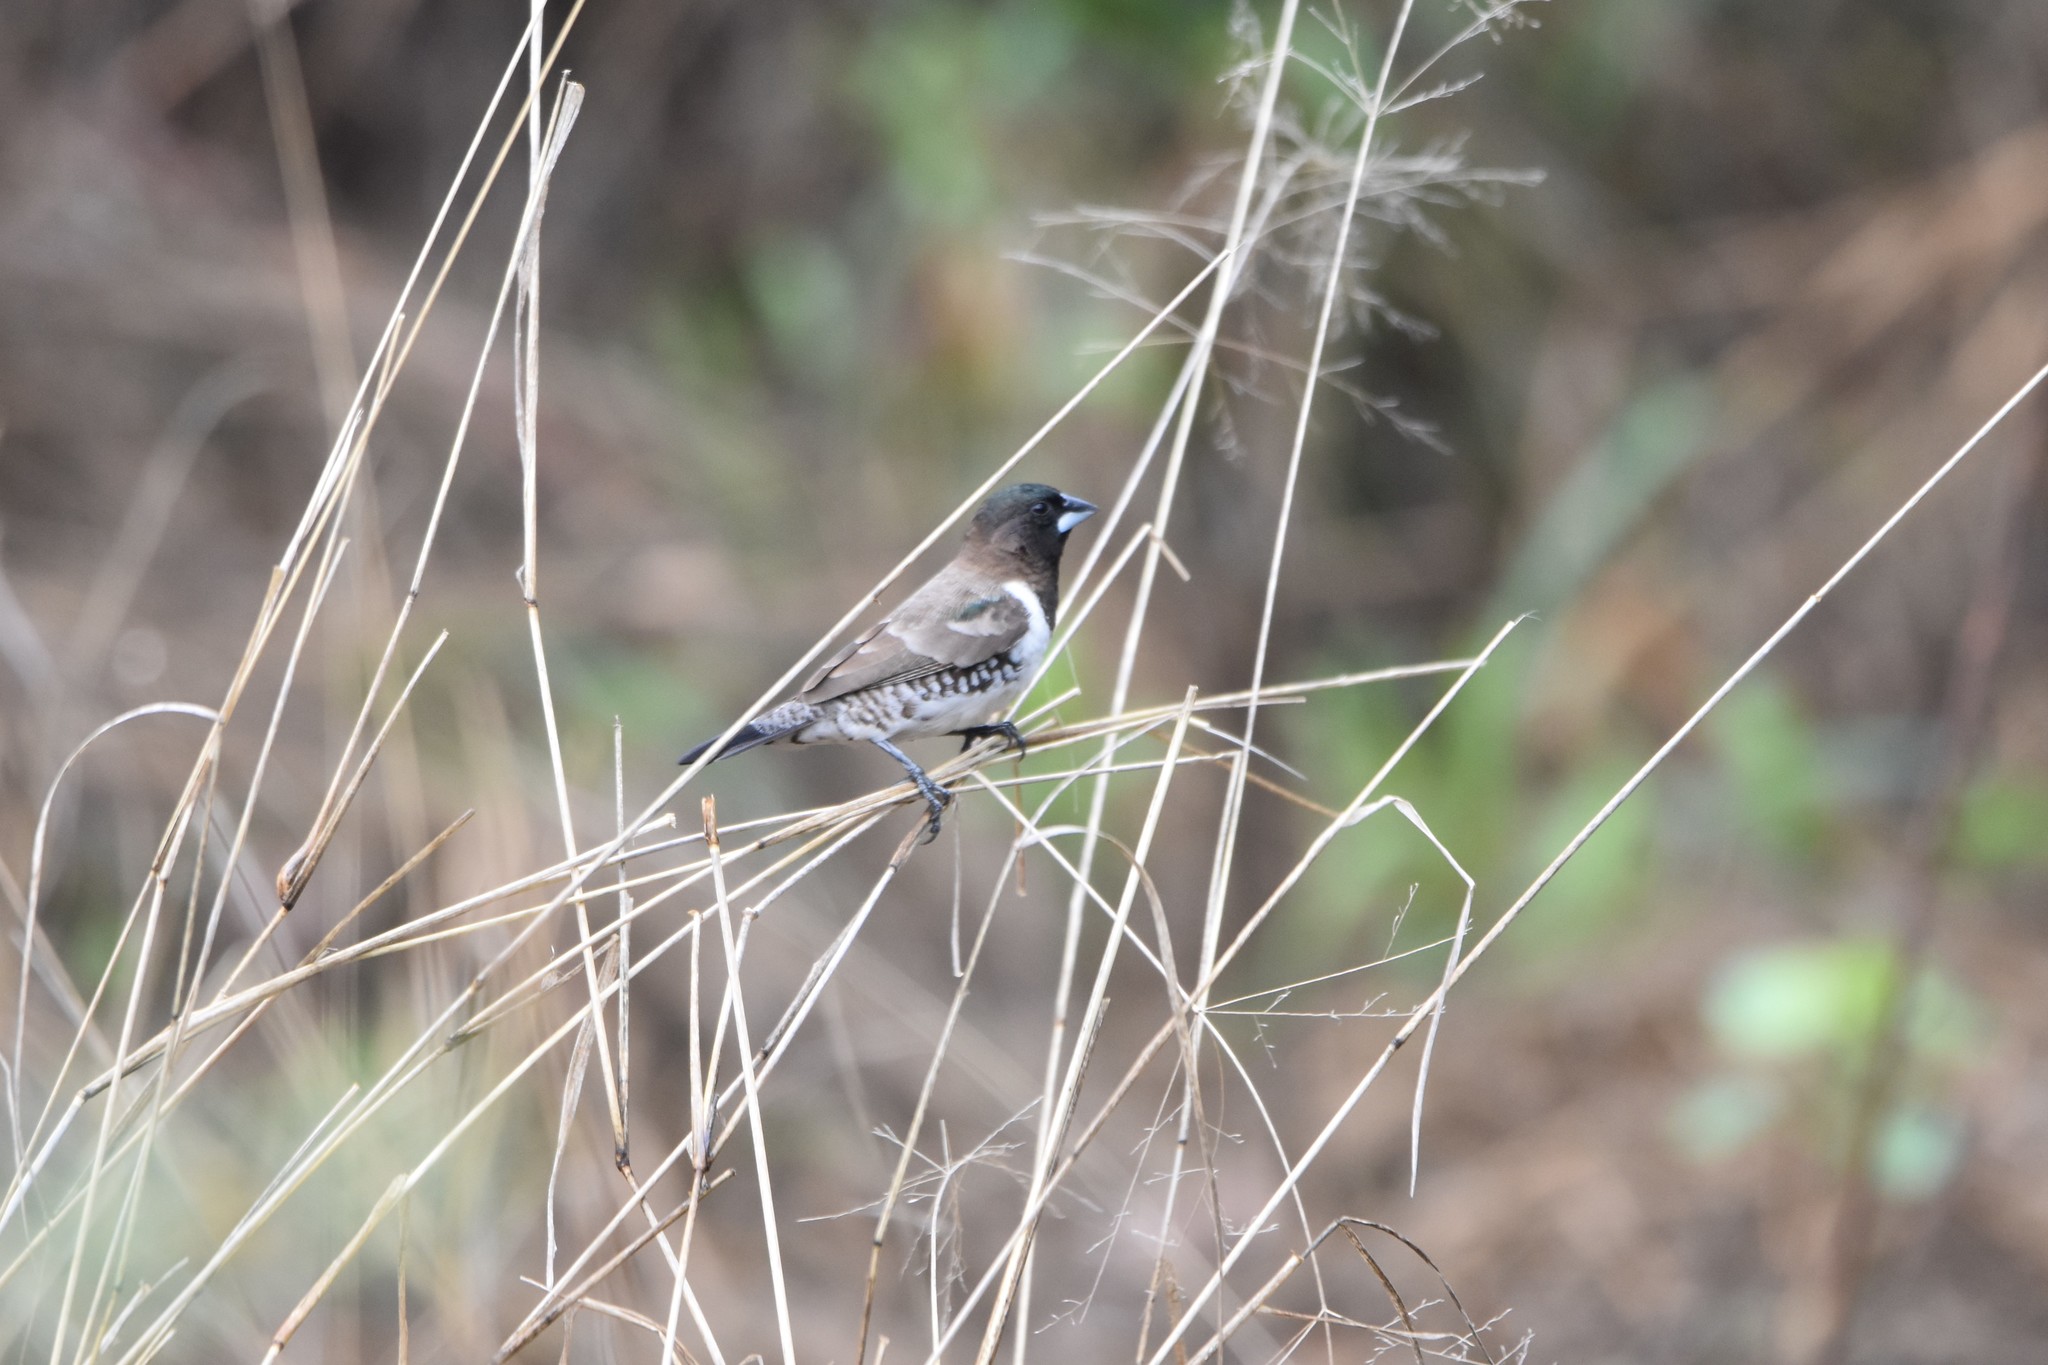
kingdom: Animalia
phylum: Chordata
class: Aves
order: Passeriformes
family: Estrildidae
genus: Lonchura
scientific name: Lonchura cucullata
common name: Bronze mannikin
